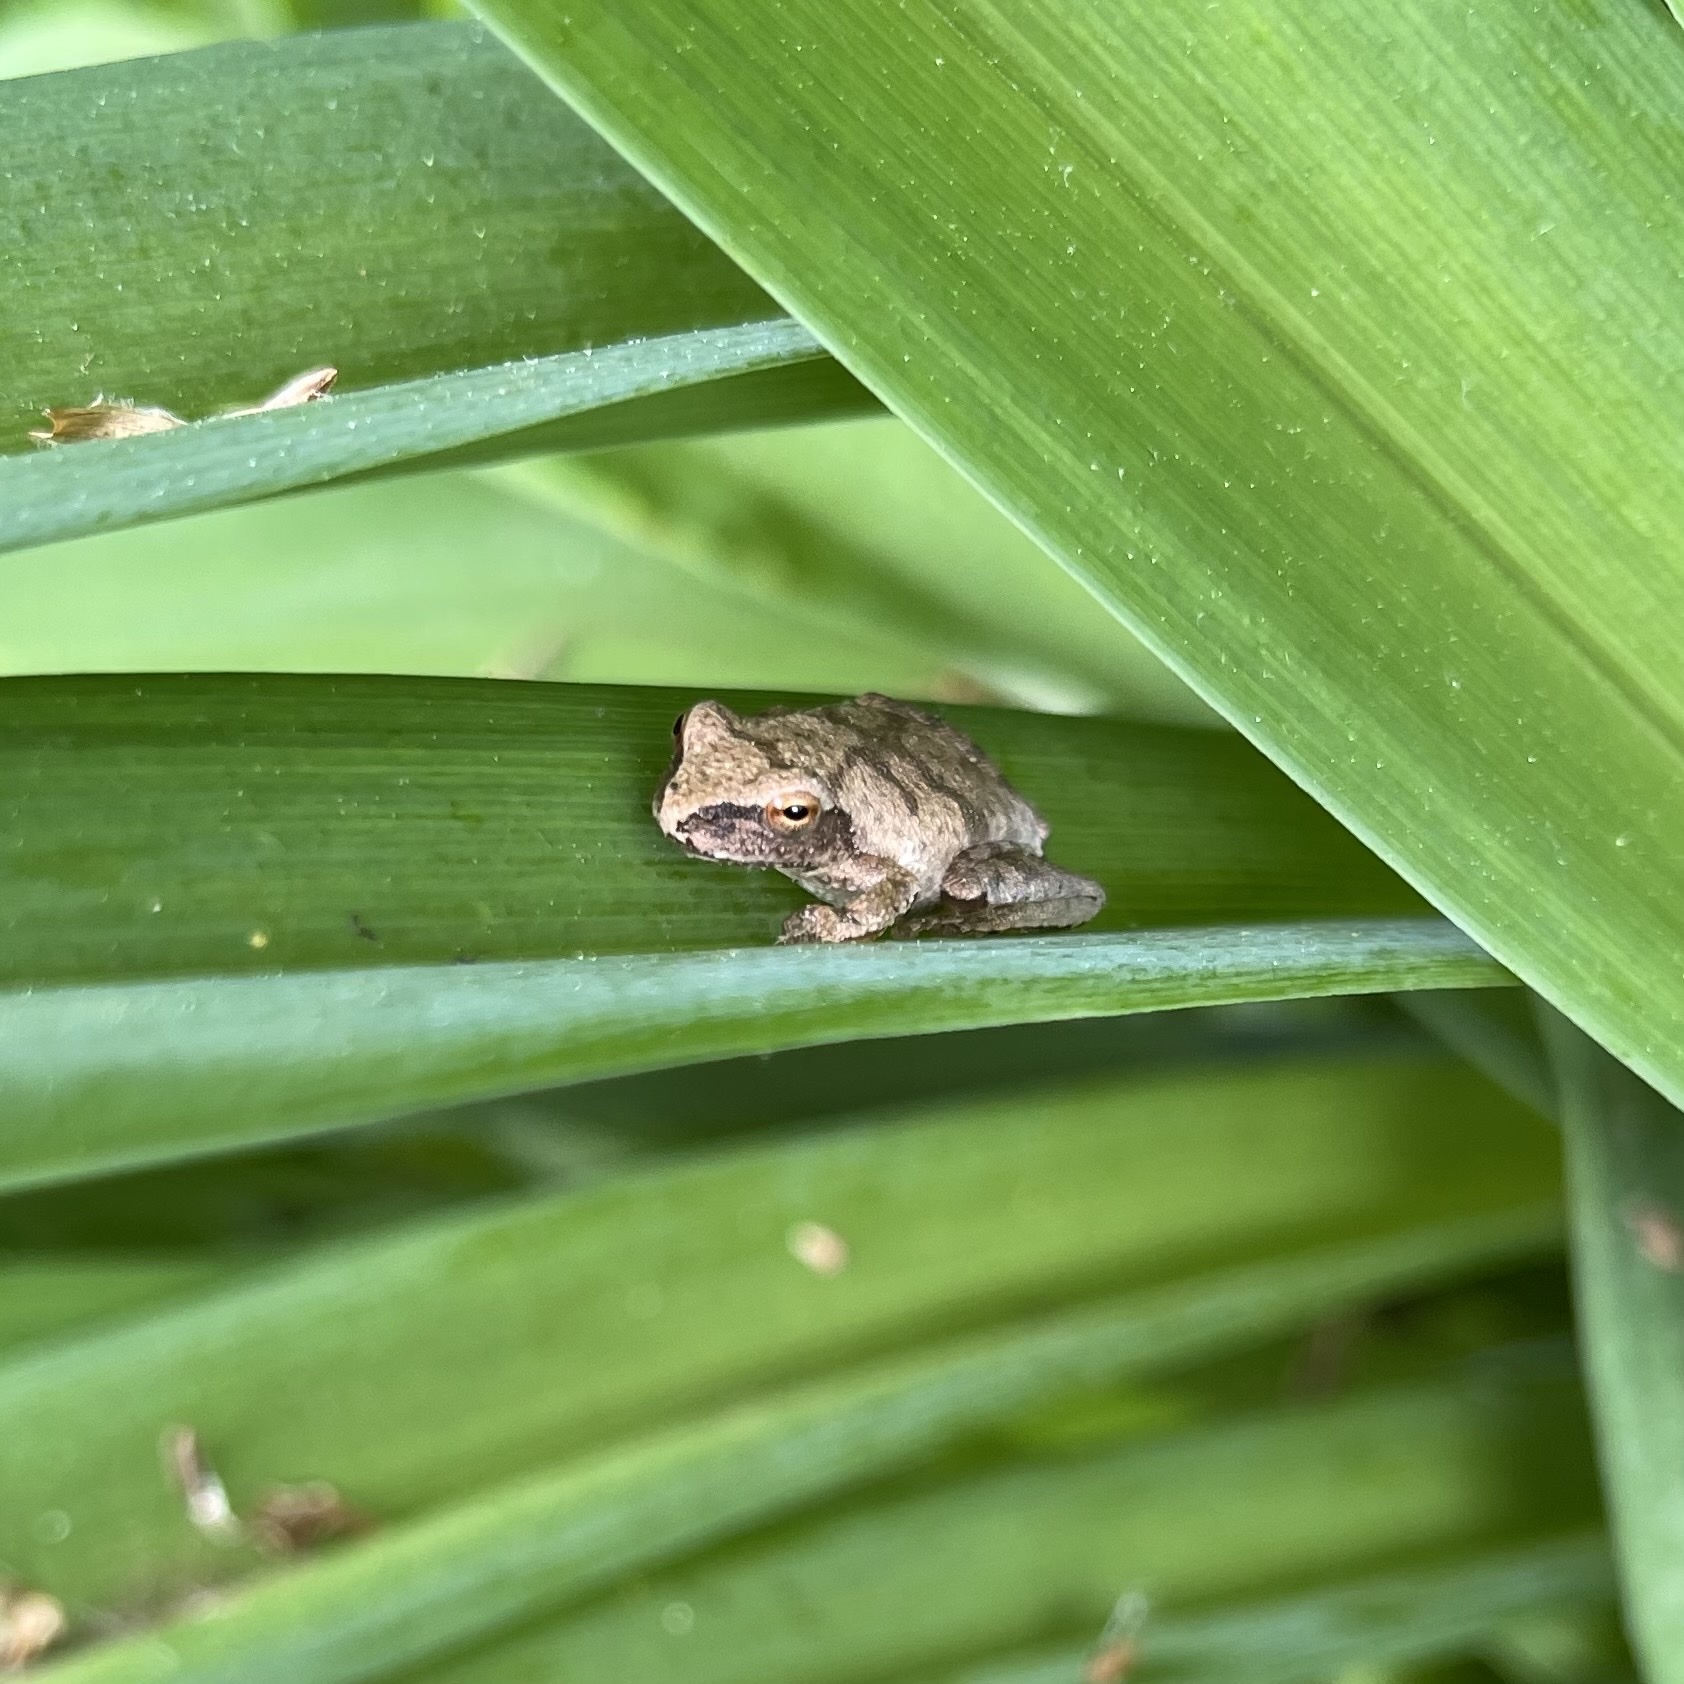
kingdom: Animalia
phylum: Chordata
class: Amphibia
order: Anura
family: Hylidae
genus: Pseudacris
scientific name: Pseudacris crucifer
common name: Spring peeper
